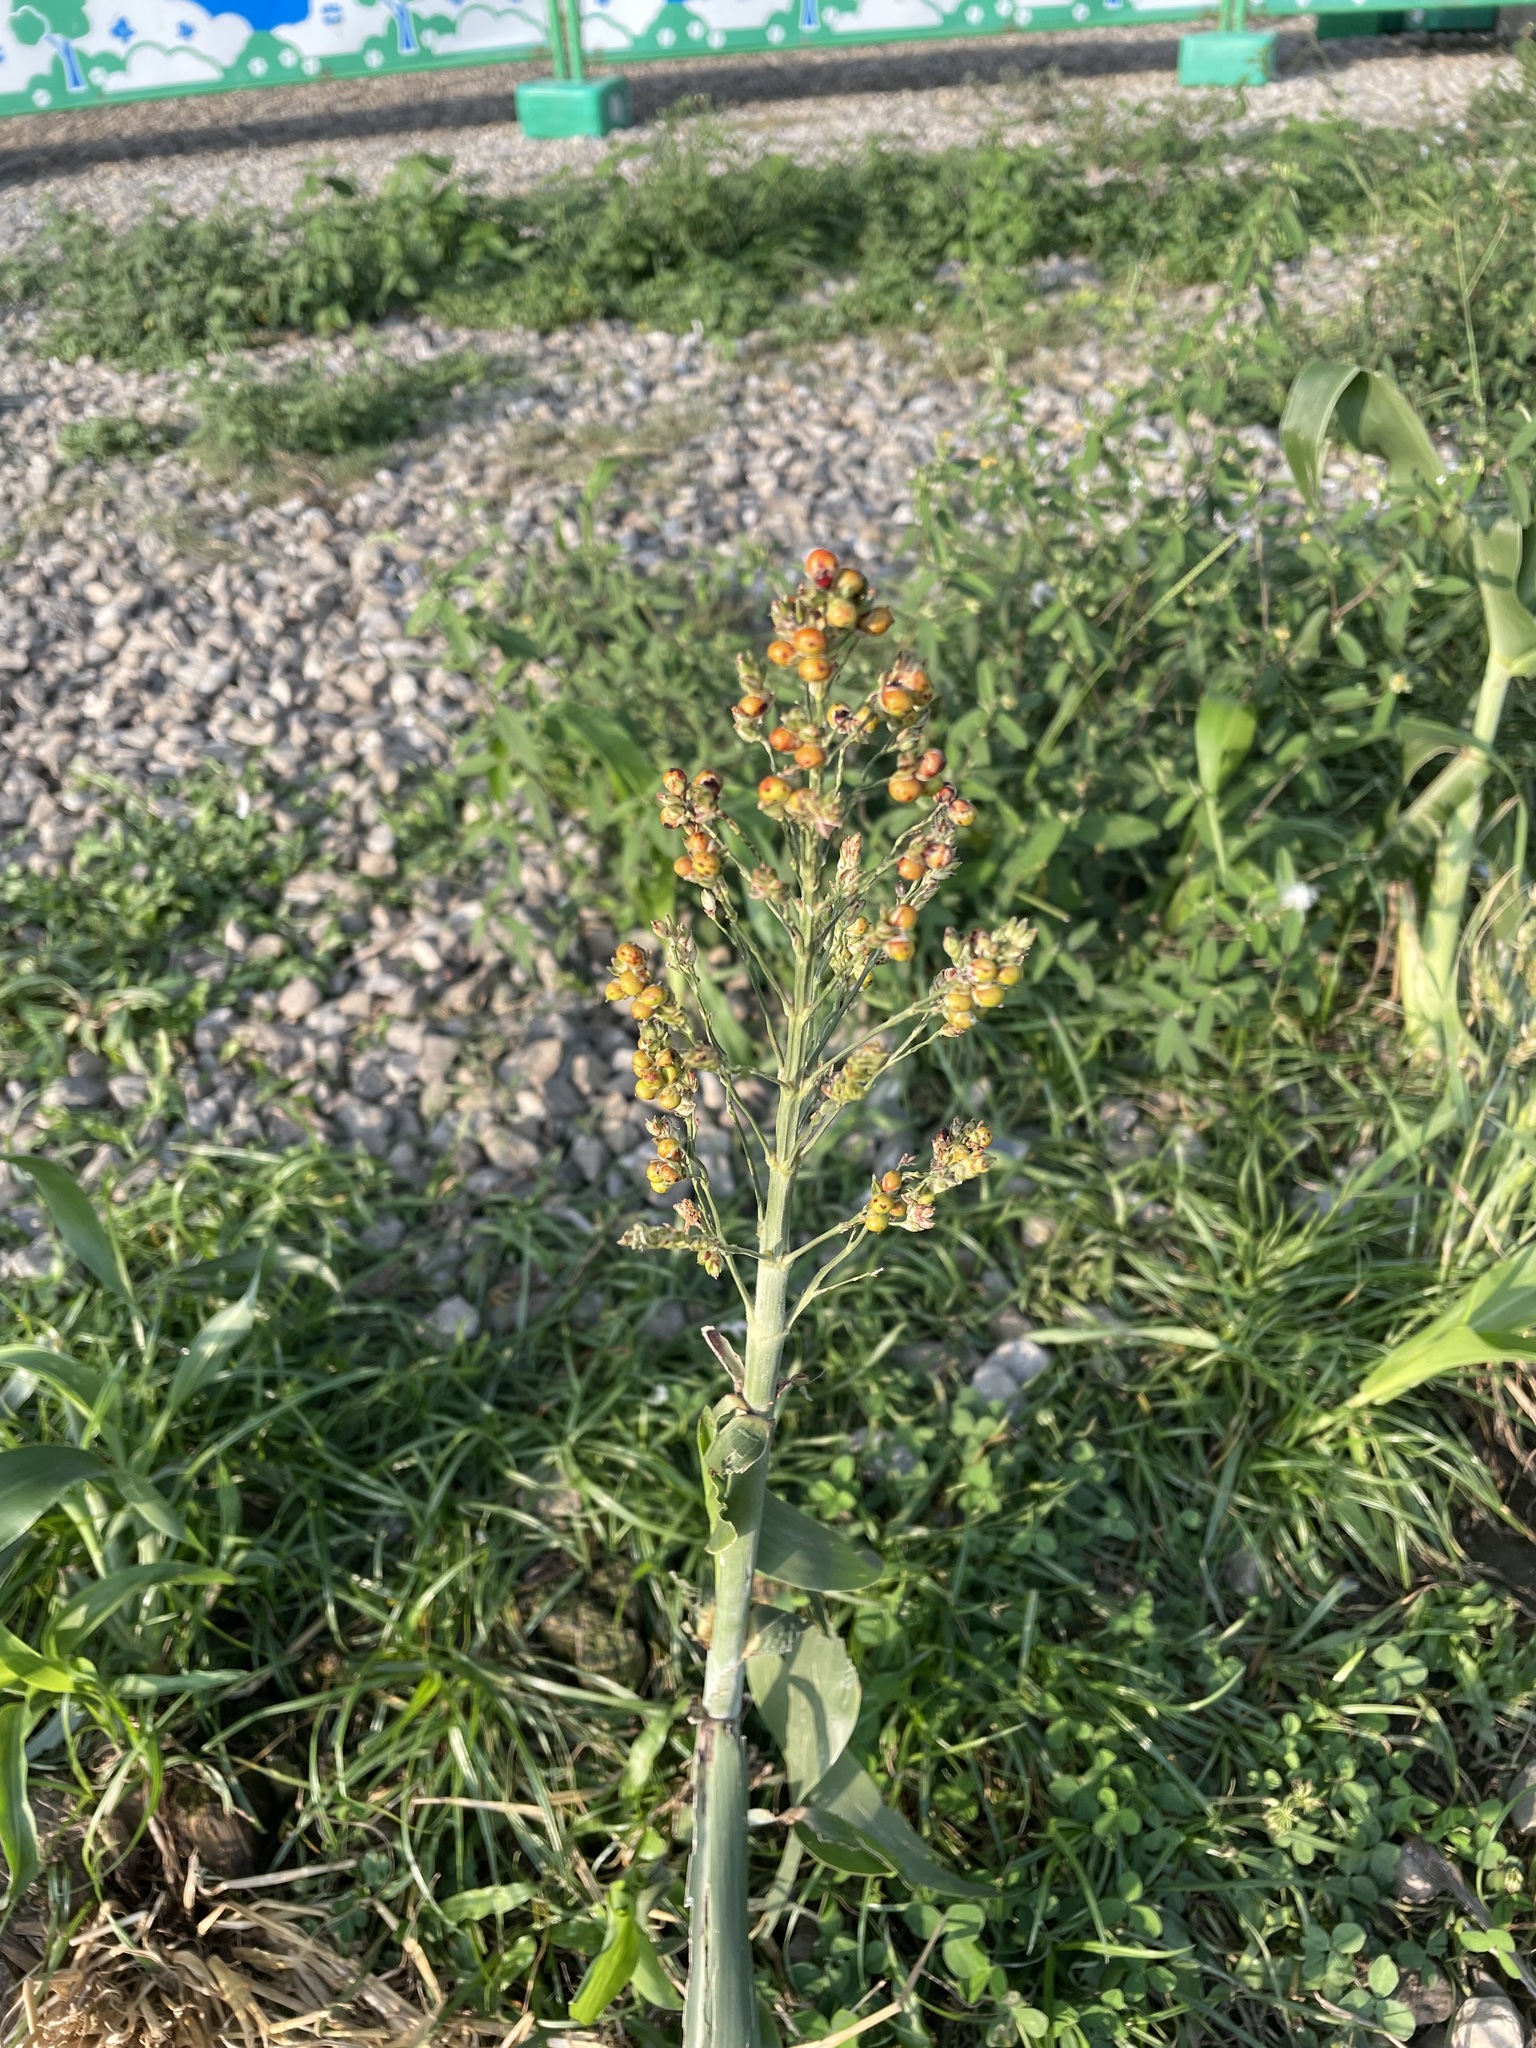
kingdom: Plantae
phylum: Tracheophyta
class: Liliopsida
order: Poales
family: Poaceae
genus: Sorghum
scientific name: Sorghum bicolor
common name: Sorghum
